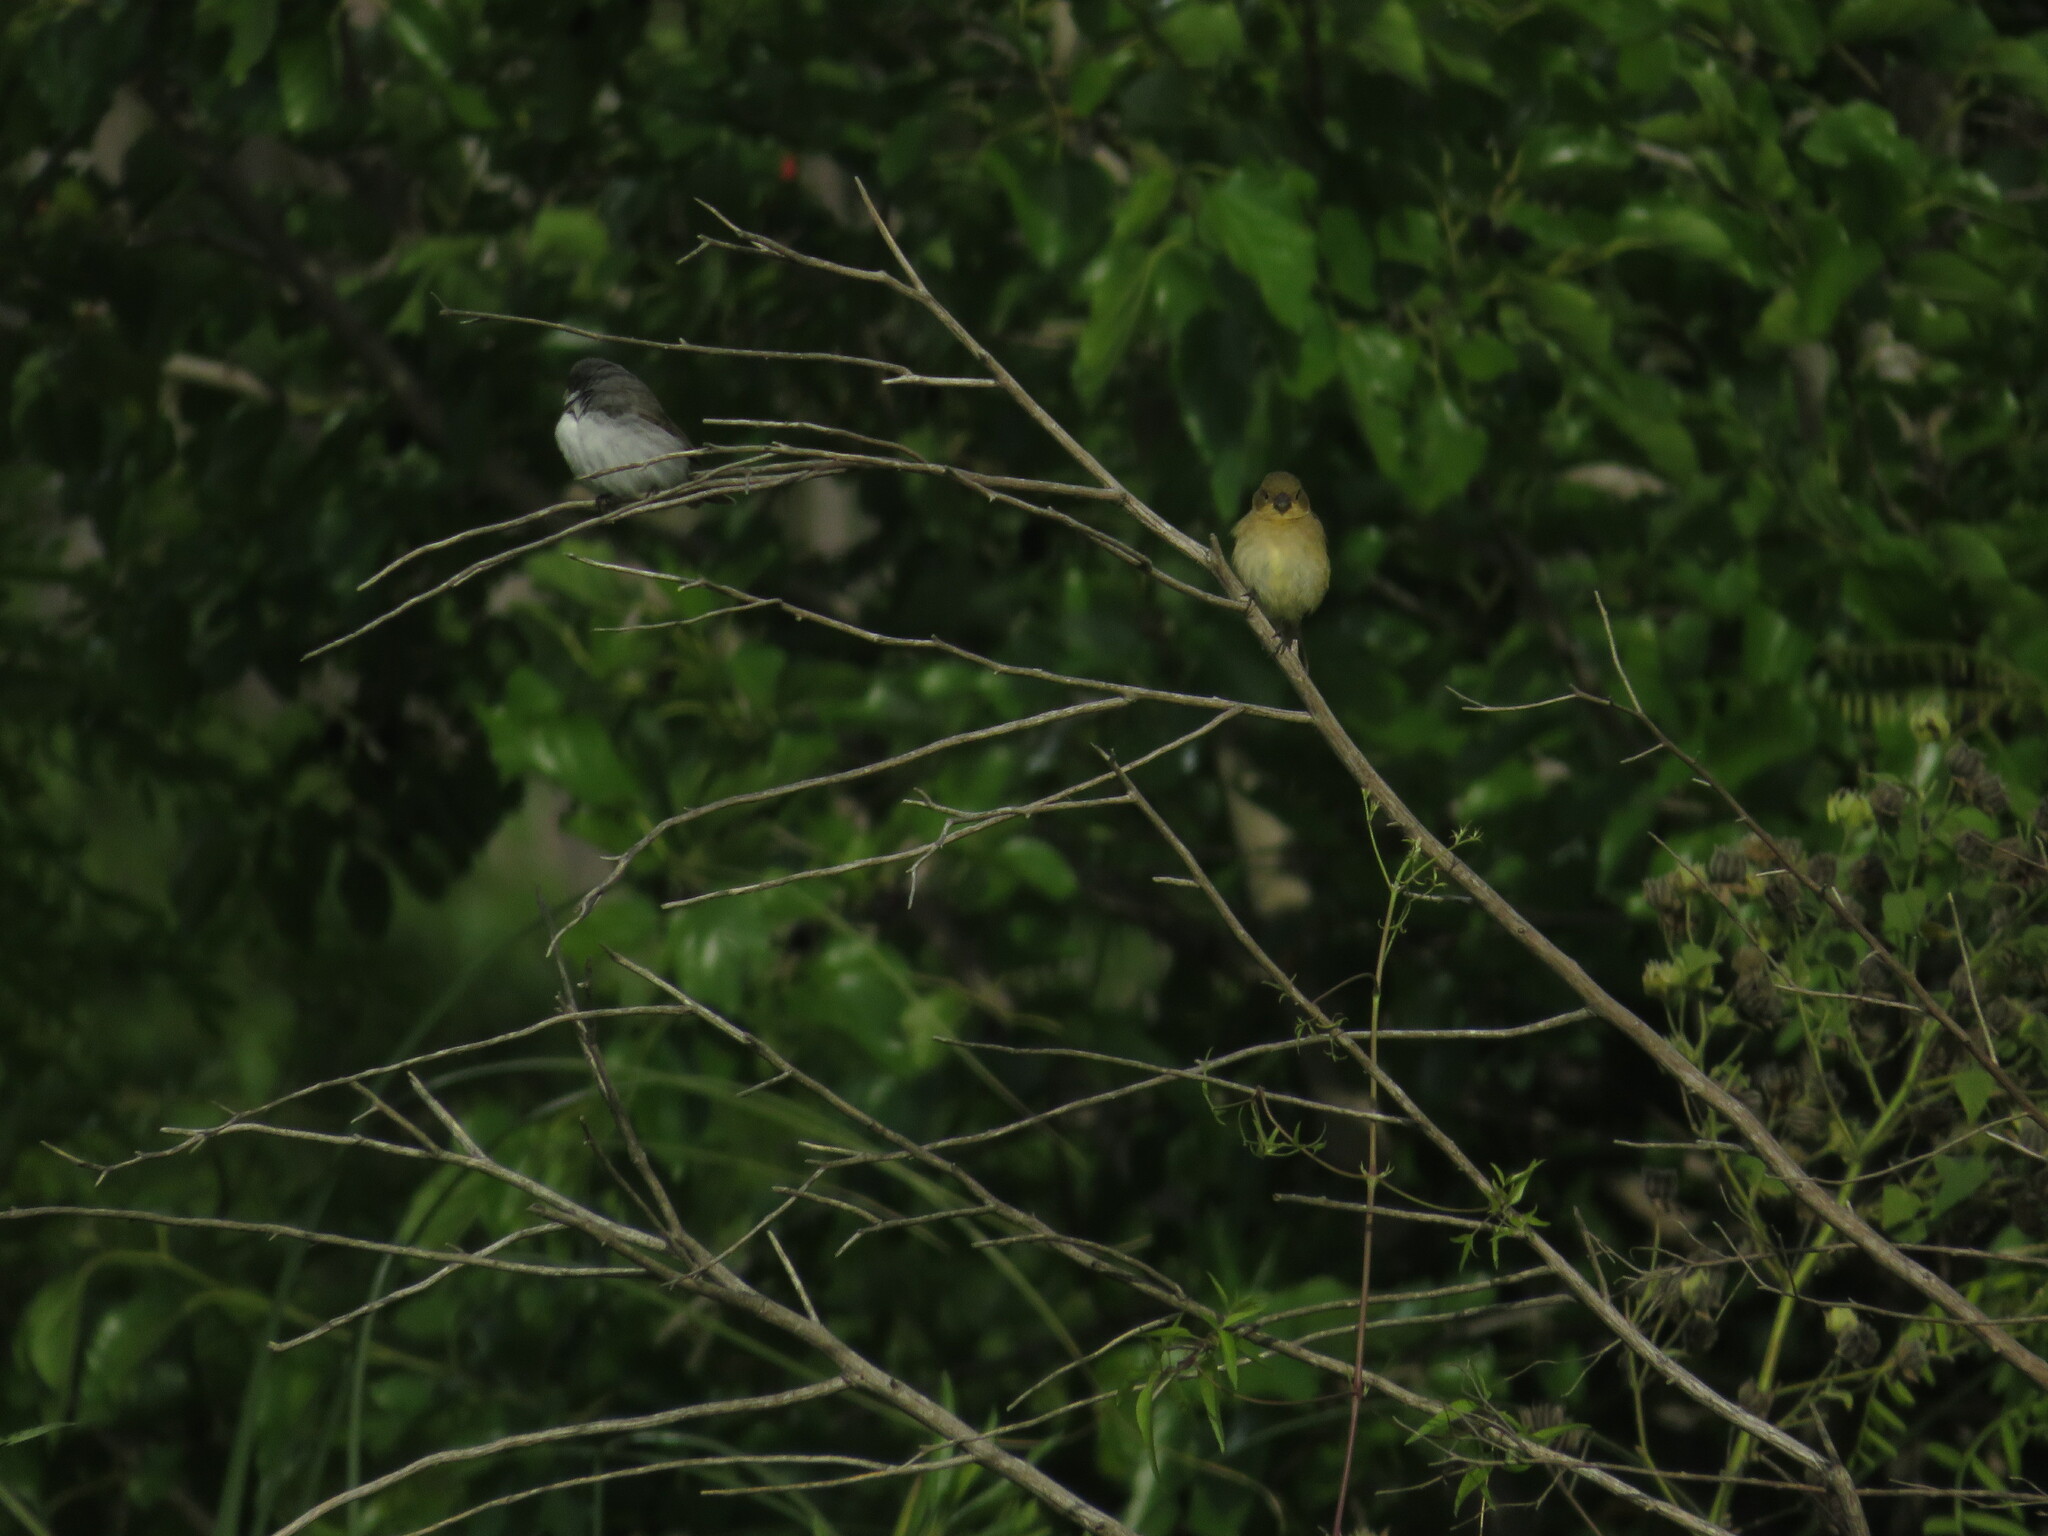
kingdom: Animalia
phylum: Chordata
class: Aves
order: Passeriformes
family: Thraupidae
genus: Sporophila
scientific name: Sporophila caerulescens
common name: Double-collared seedeater
